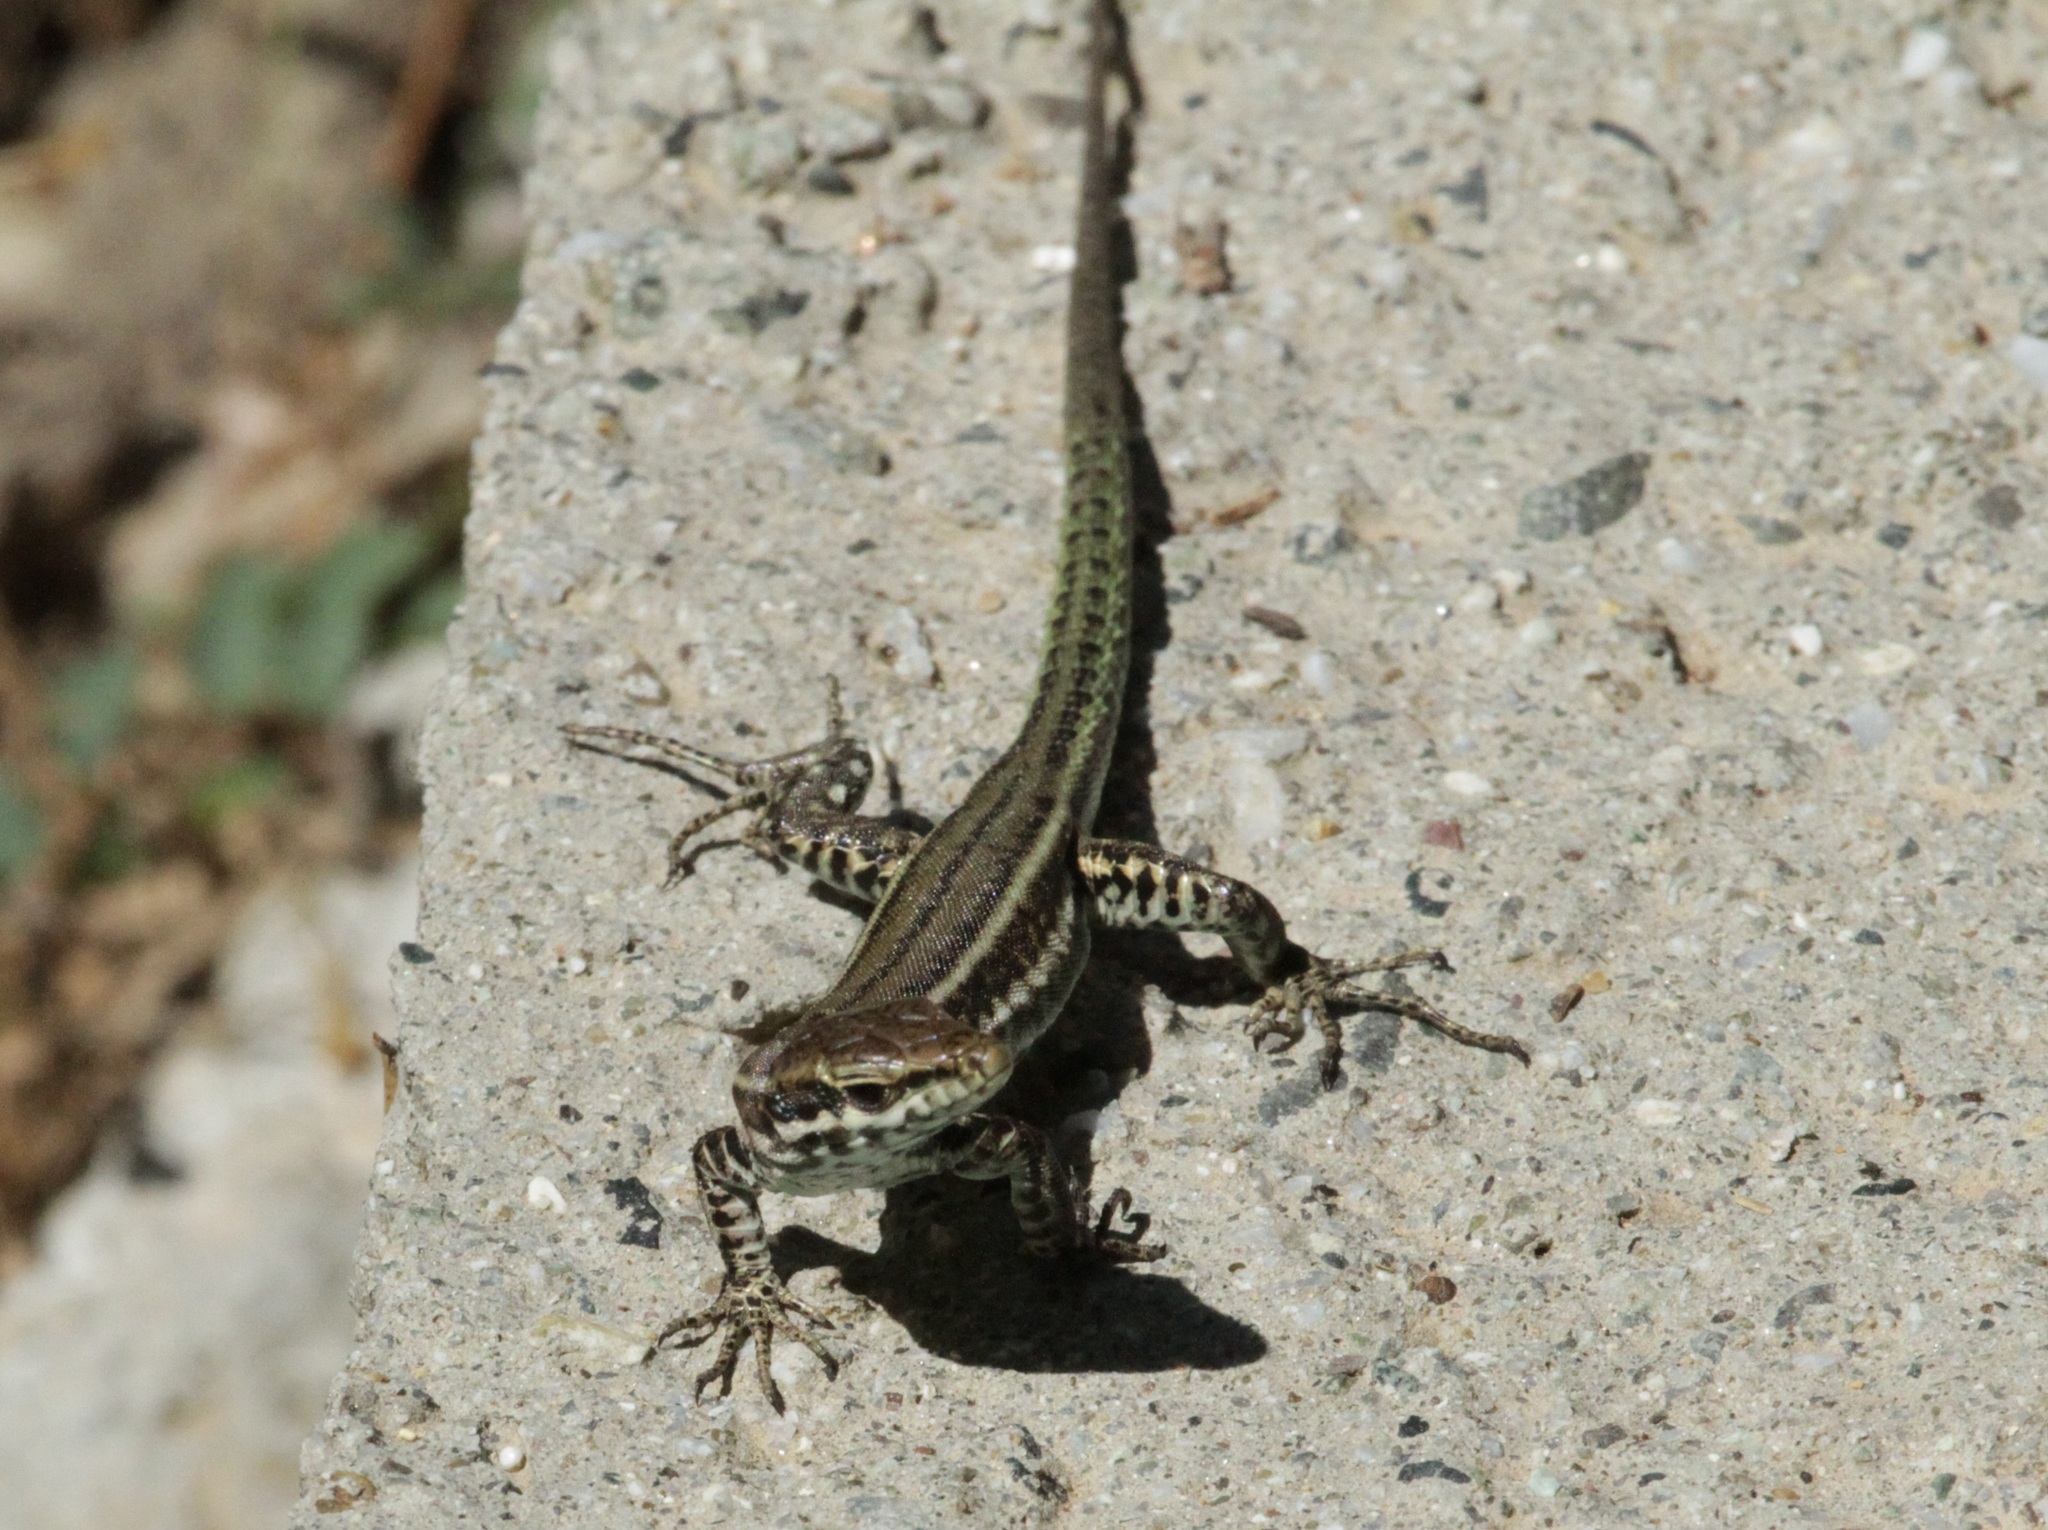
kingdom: Animalia
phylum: Chordata
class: Squamata
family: Lacertidae
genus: Podarcis
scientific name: Podarcis tiliguerta
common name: Tyrrhenian wall lizard
